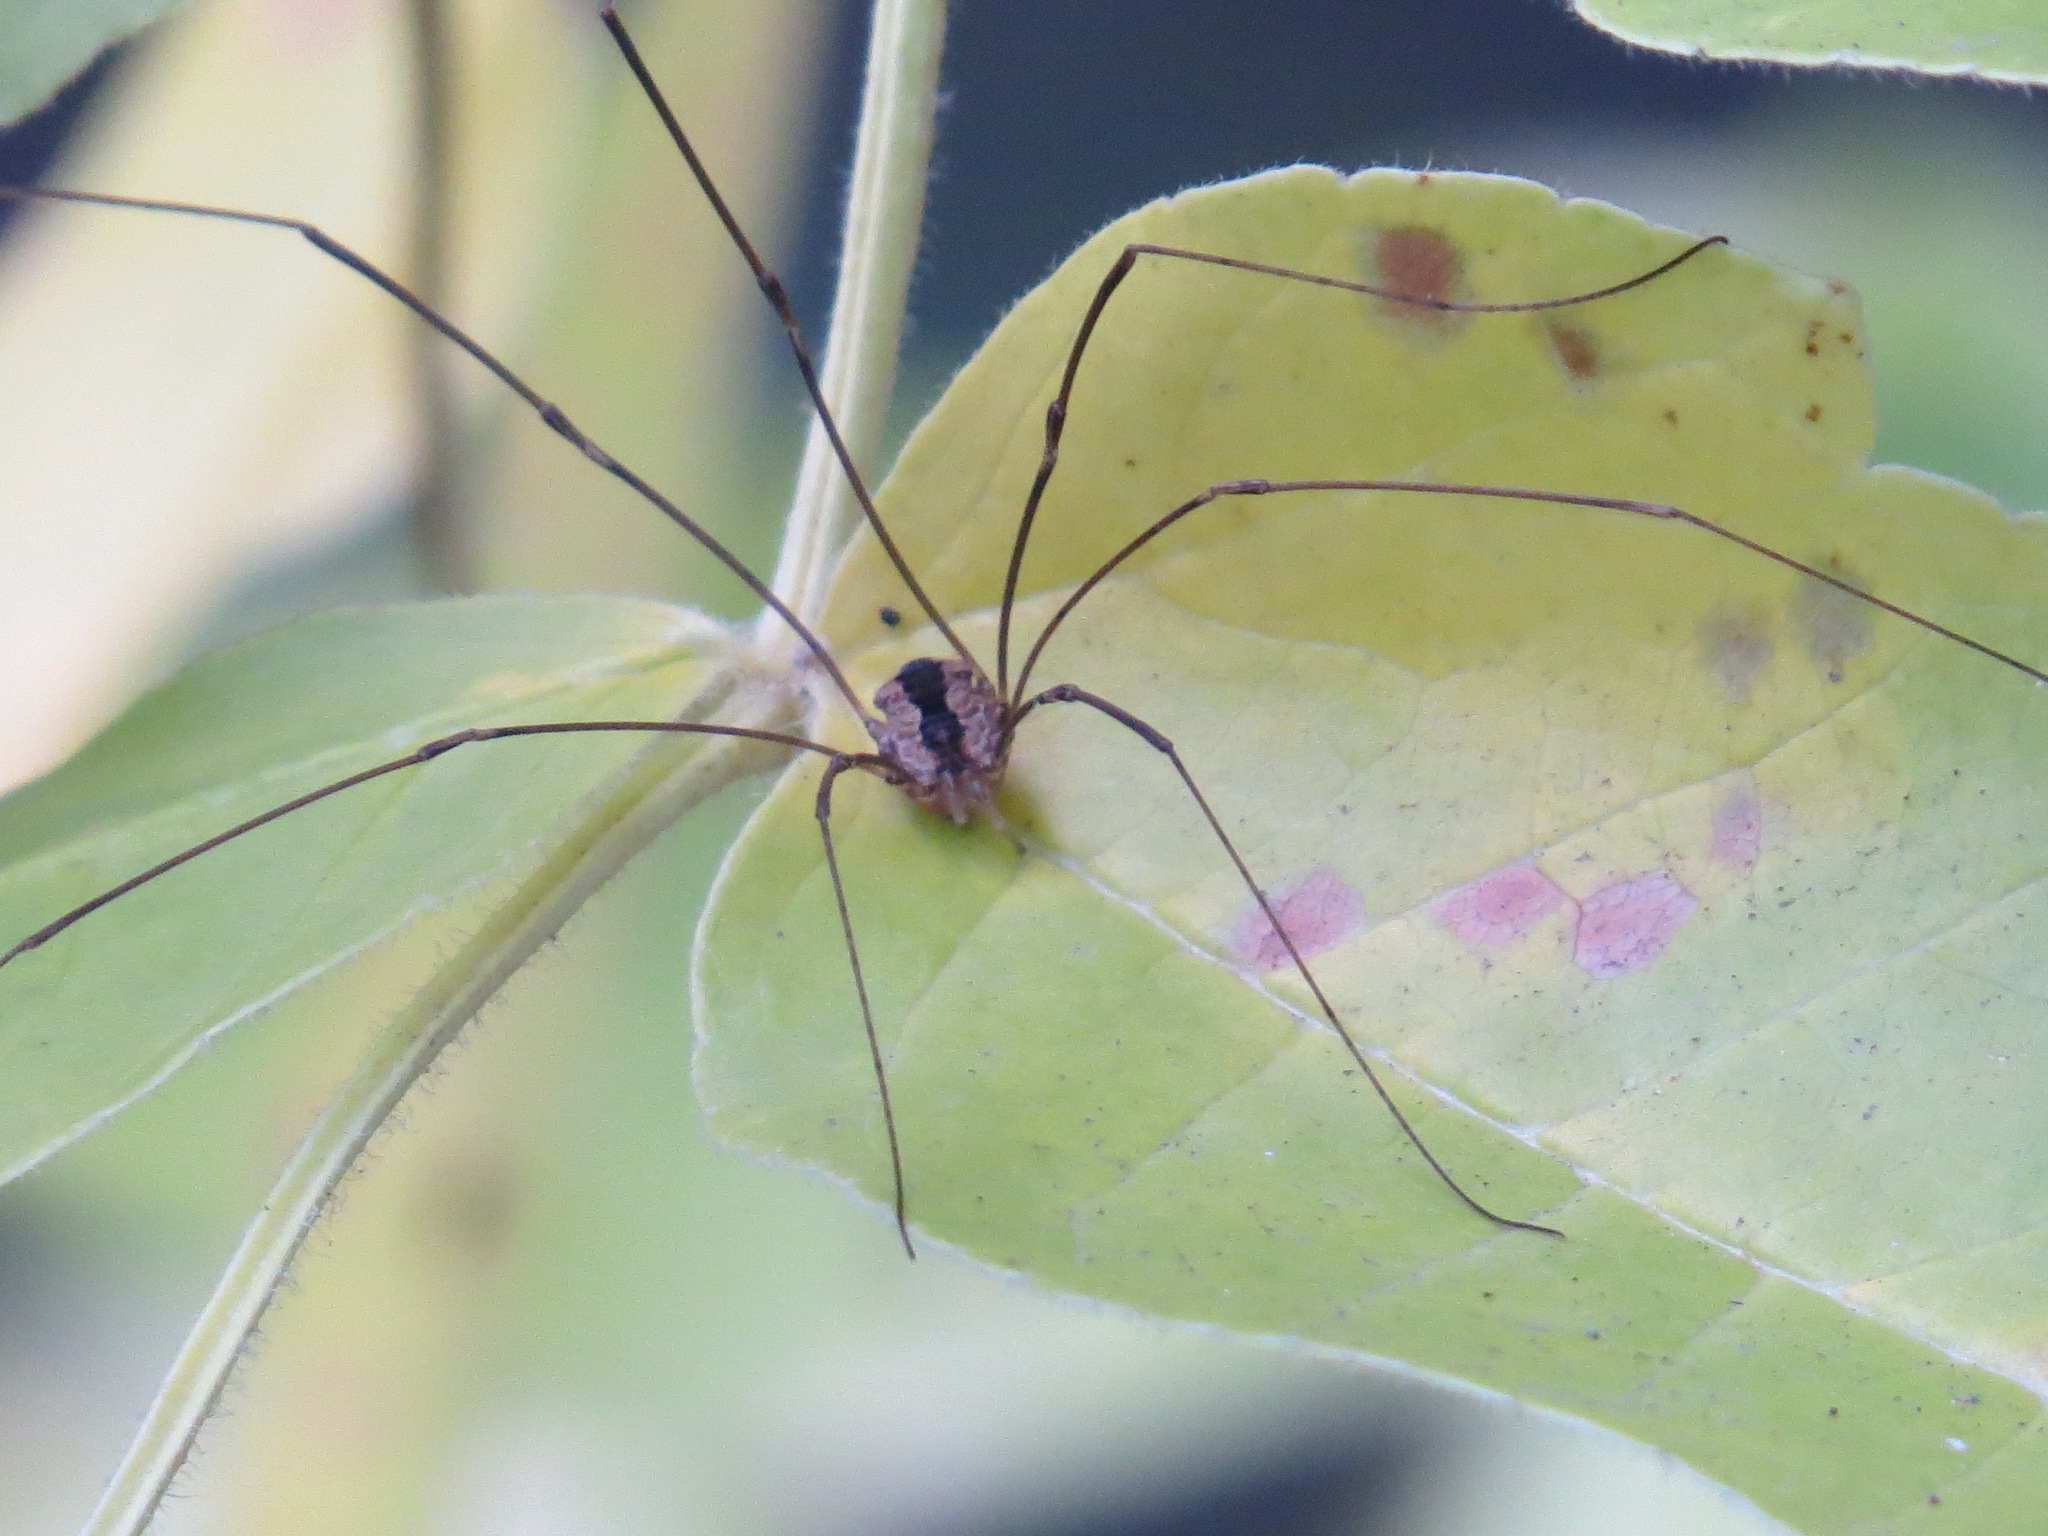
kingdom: Animalia
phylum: Arthropoda
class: Arachnida
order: Opiliones
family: Sclerosomatidae
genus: Leuronychus
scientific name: Leuronychus pacificus
